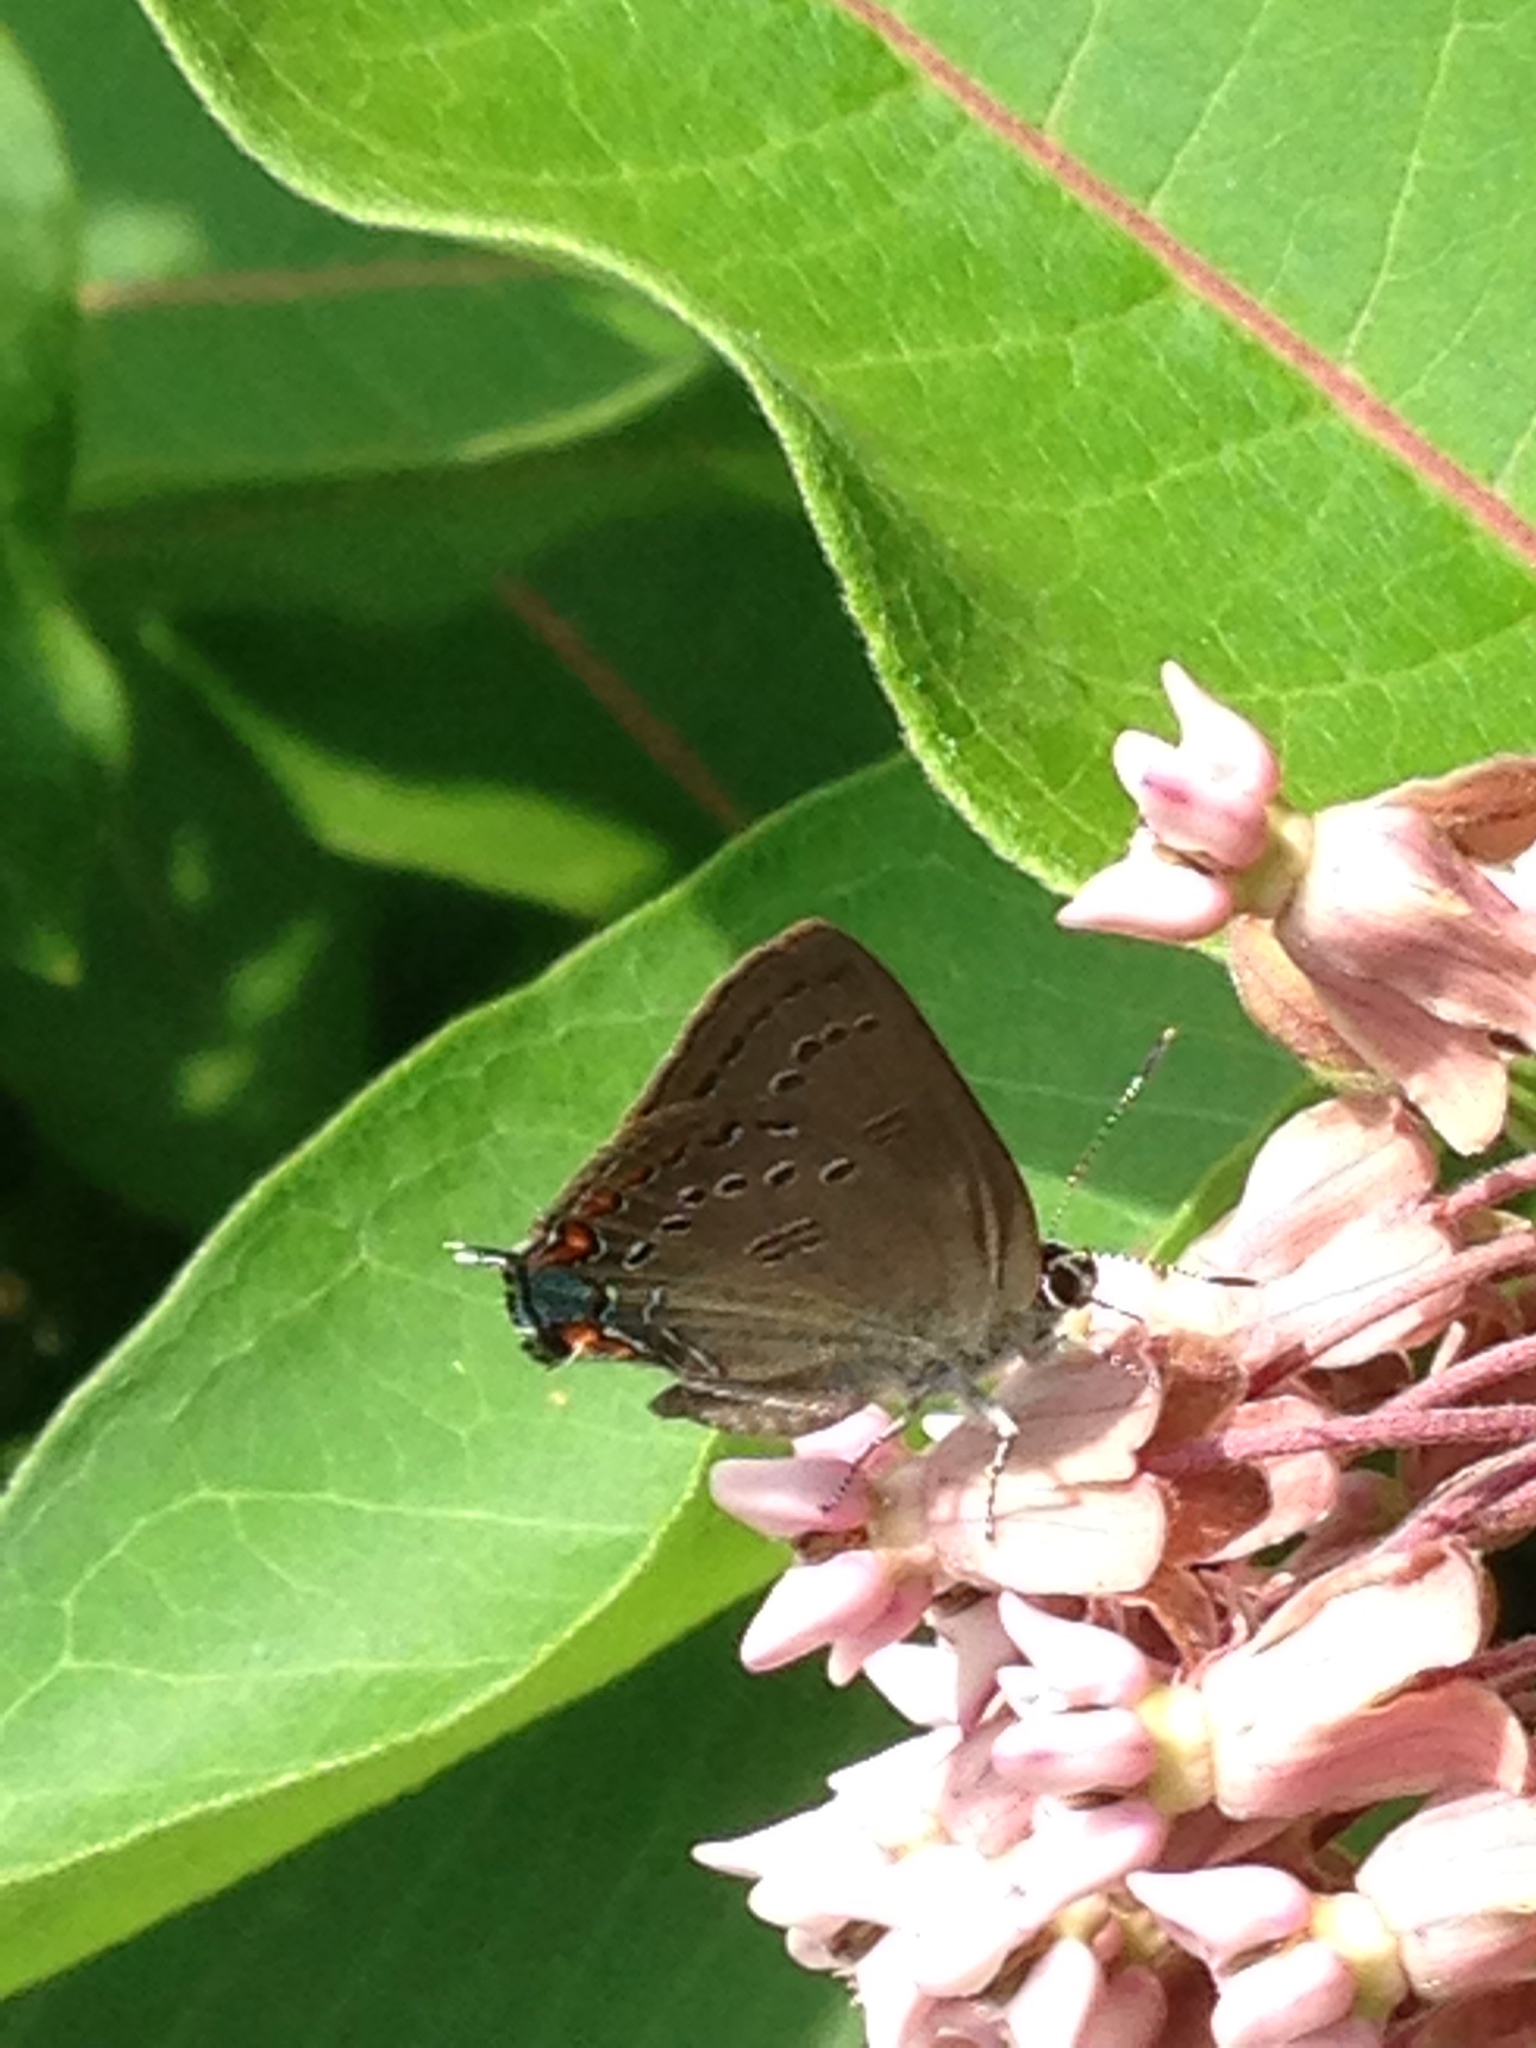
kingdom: Animalia
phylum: Arthropoda
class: Insecta
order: Lepidoptera
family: Lycaenidae
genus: Satyrium
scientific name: Satyrium edwardsii
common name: Edwards' hairstreak
